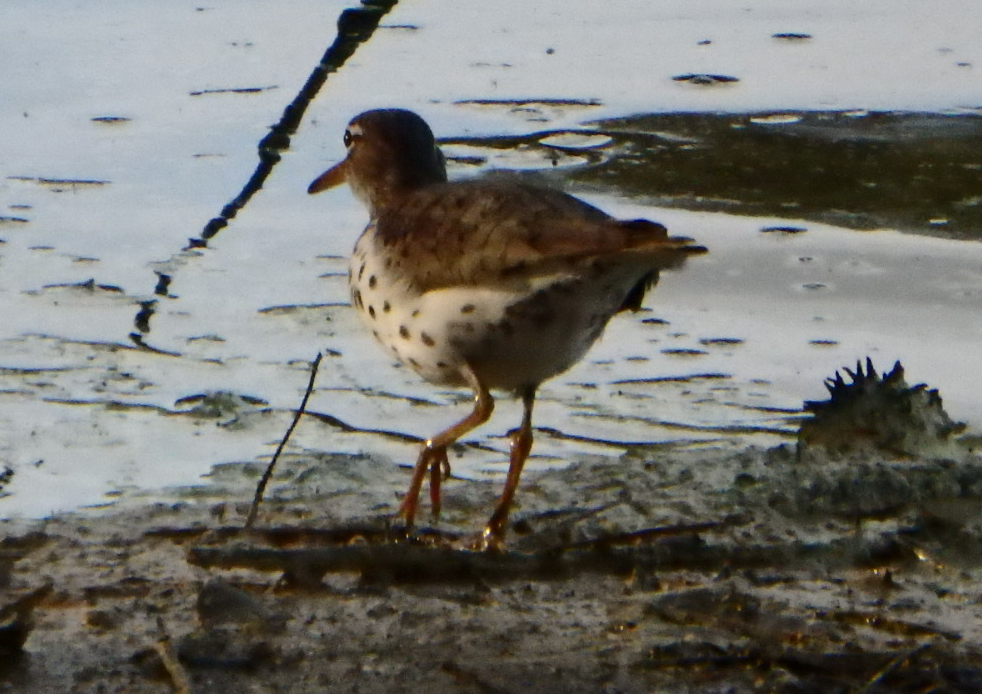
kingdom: Animalia
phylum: Chordata
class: Aves
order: Charadriiformes
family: Scolopacidae
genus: Actitis
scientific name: Actitis macularius
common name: Spotted sandpiper
